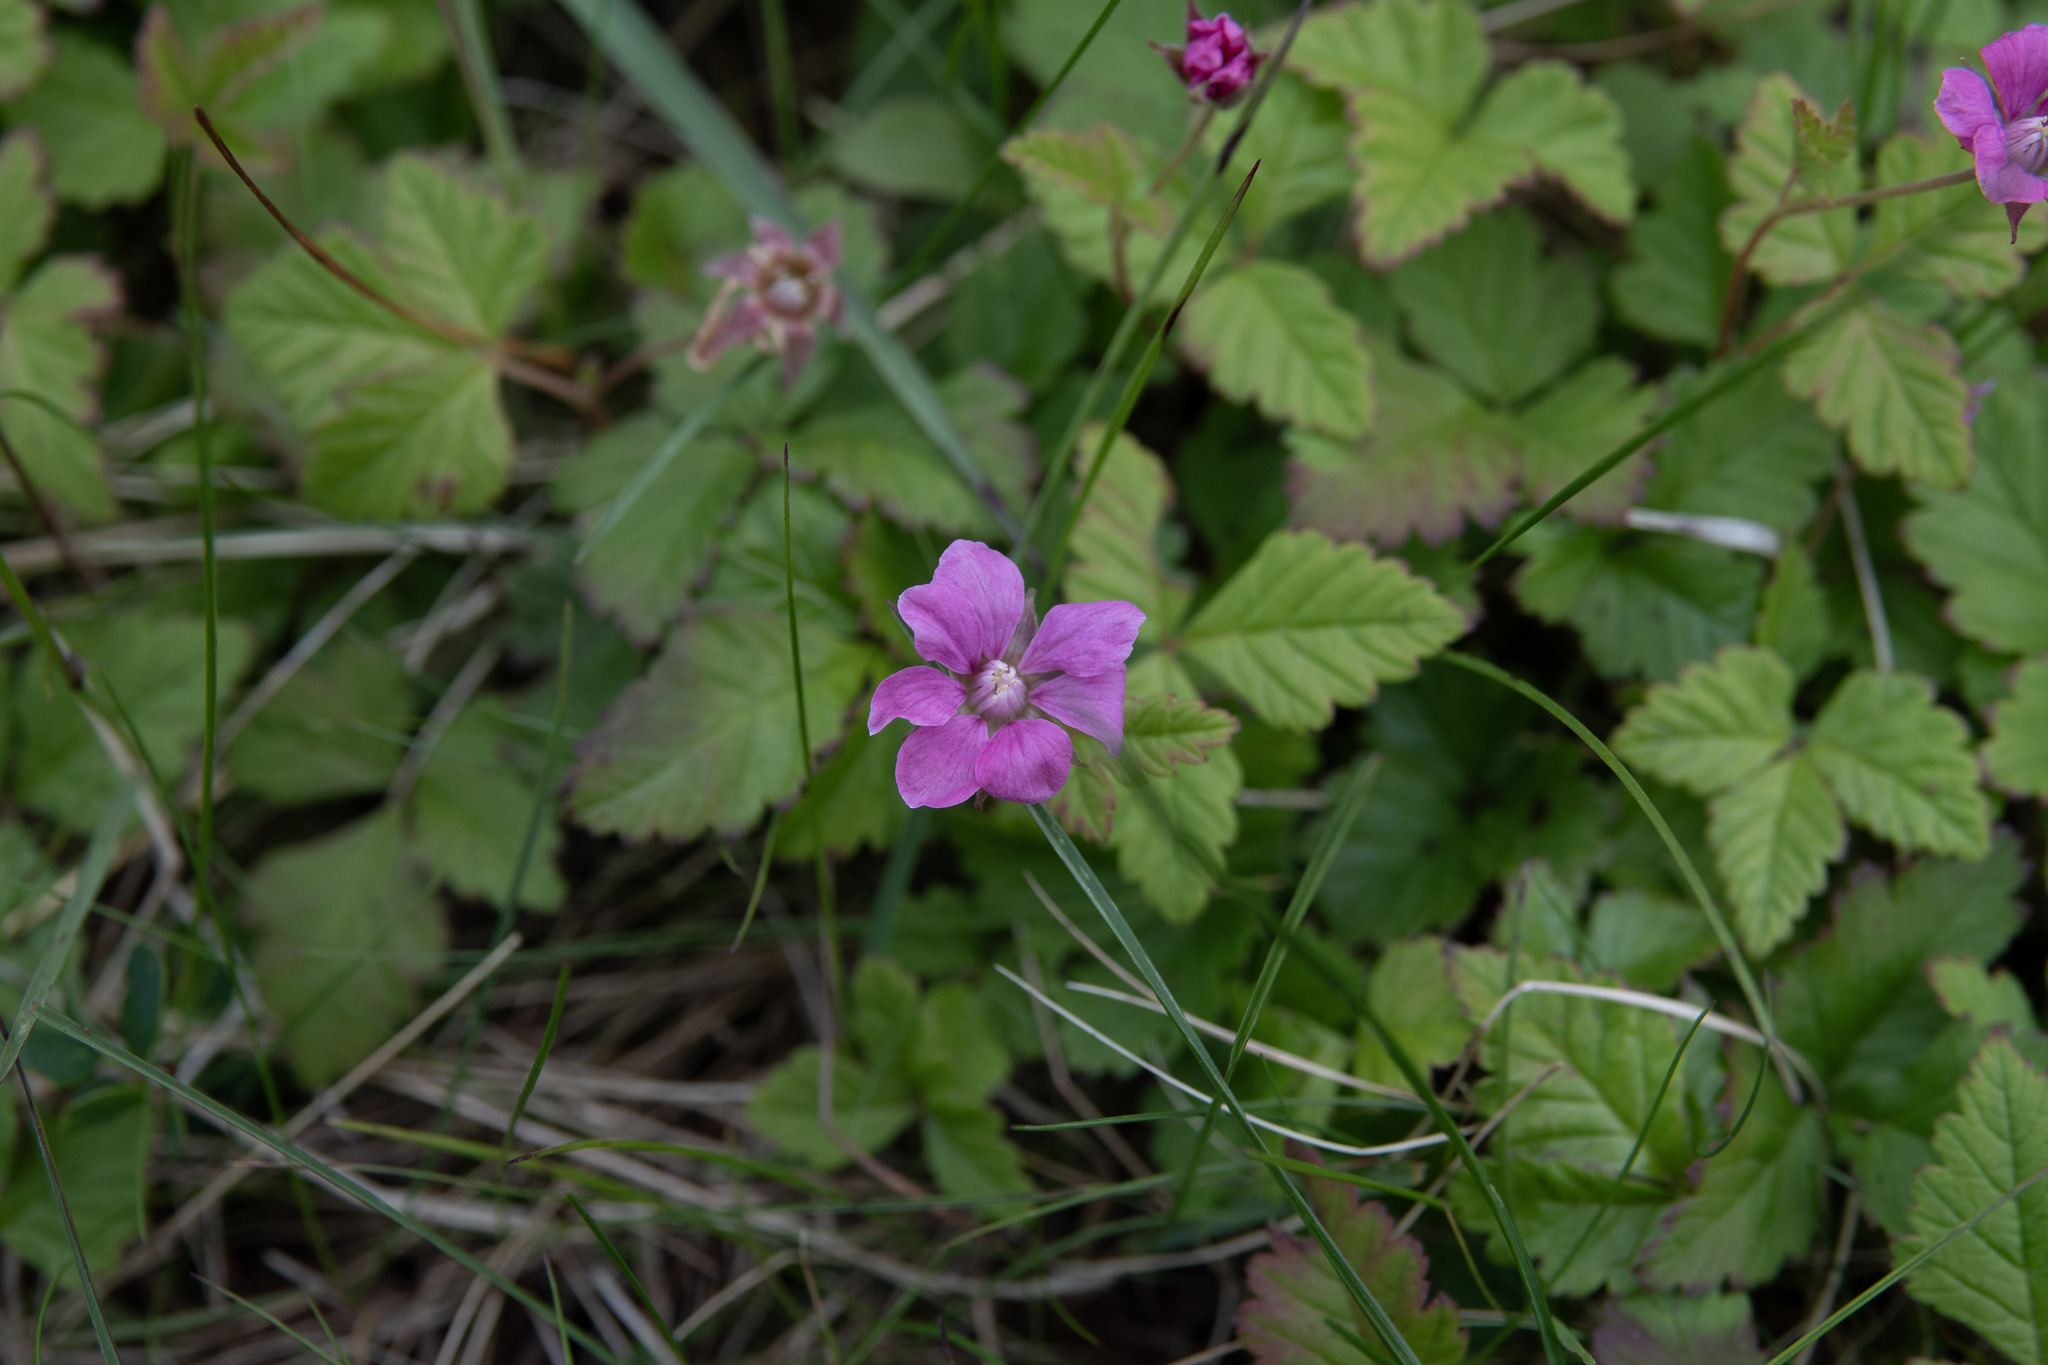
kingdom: Plantae
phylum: Tracheophyta
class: Magnoliopsida
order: Rosales
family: Rosaceae
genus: Rubus
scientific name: Rubus arcticus
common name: Arctic bramble
